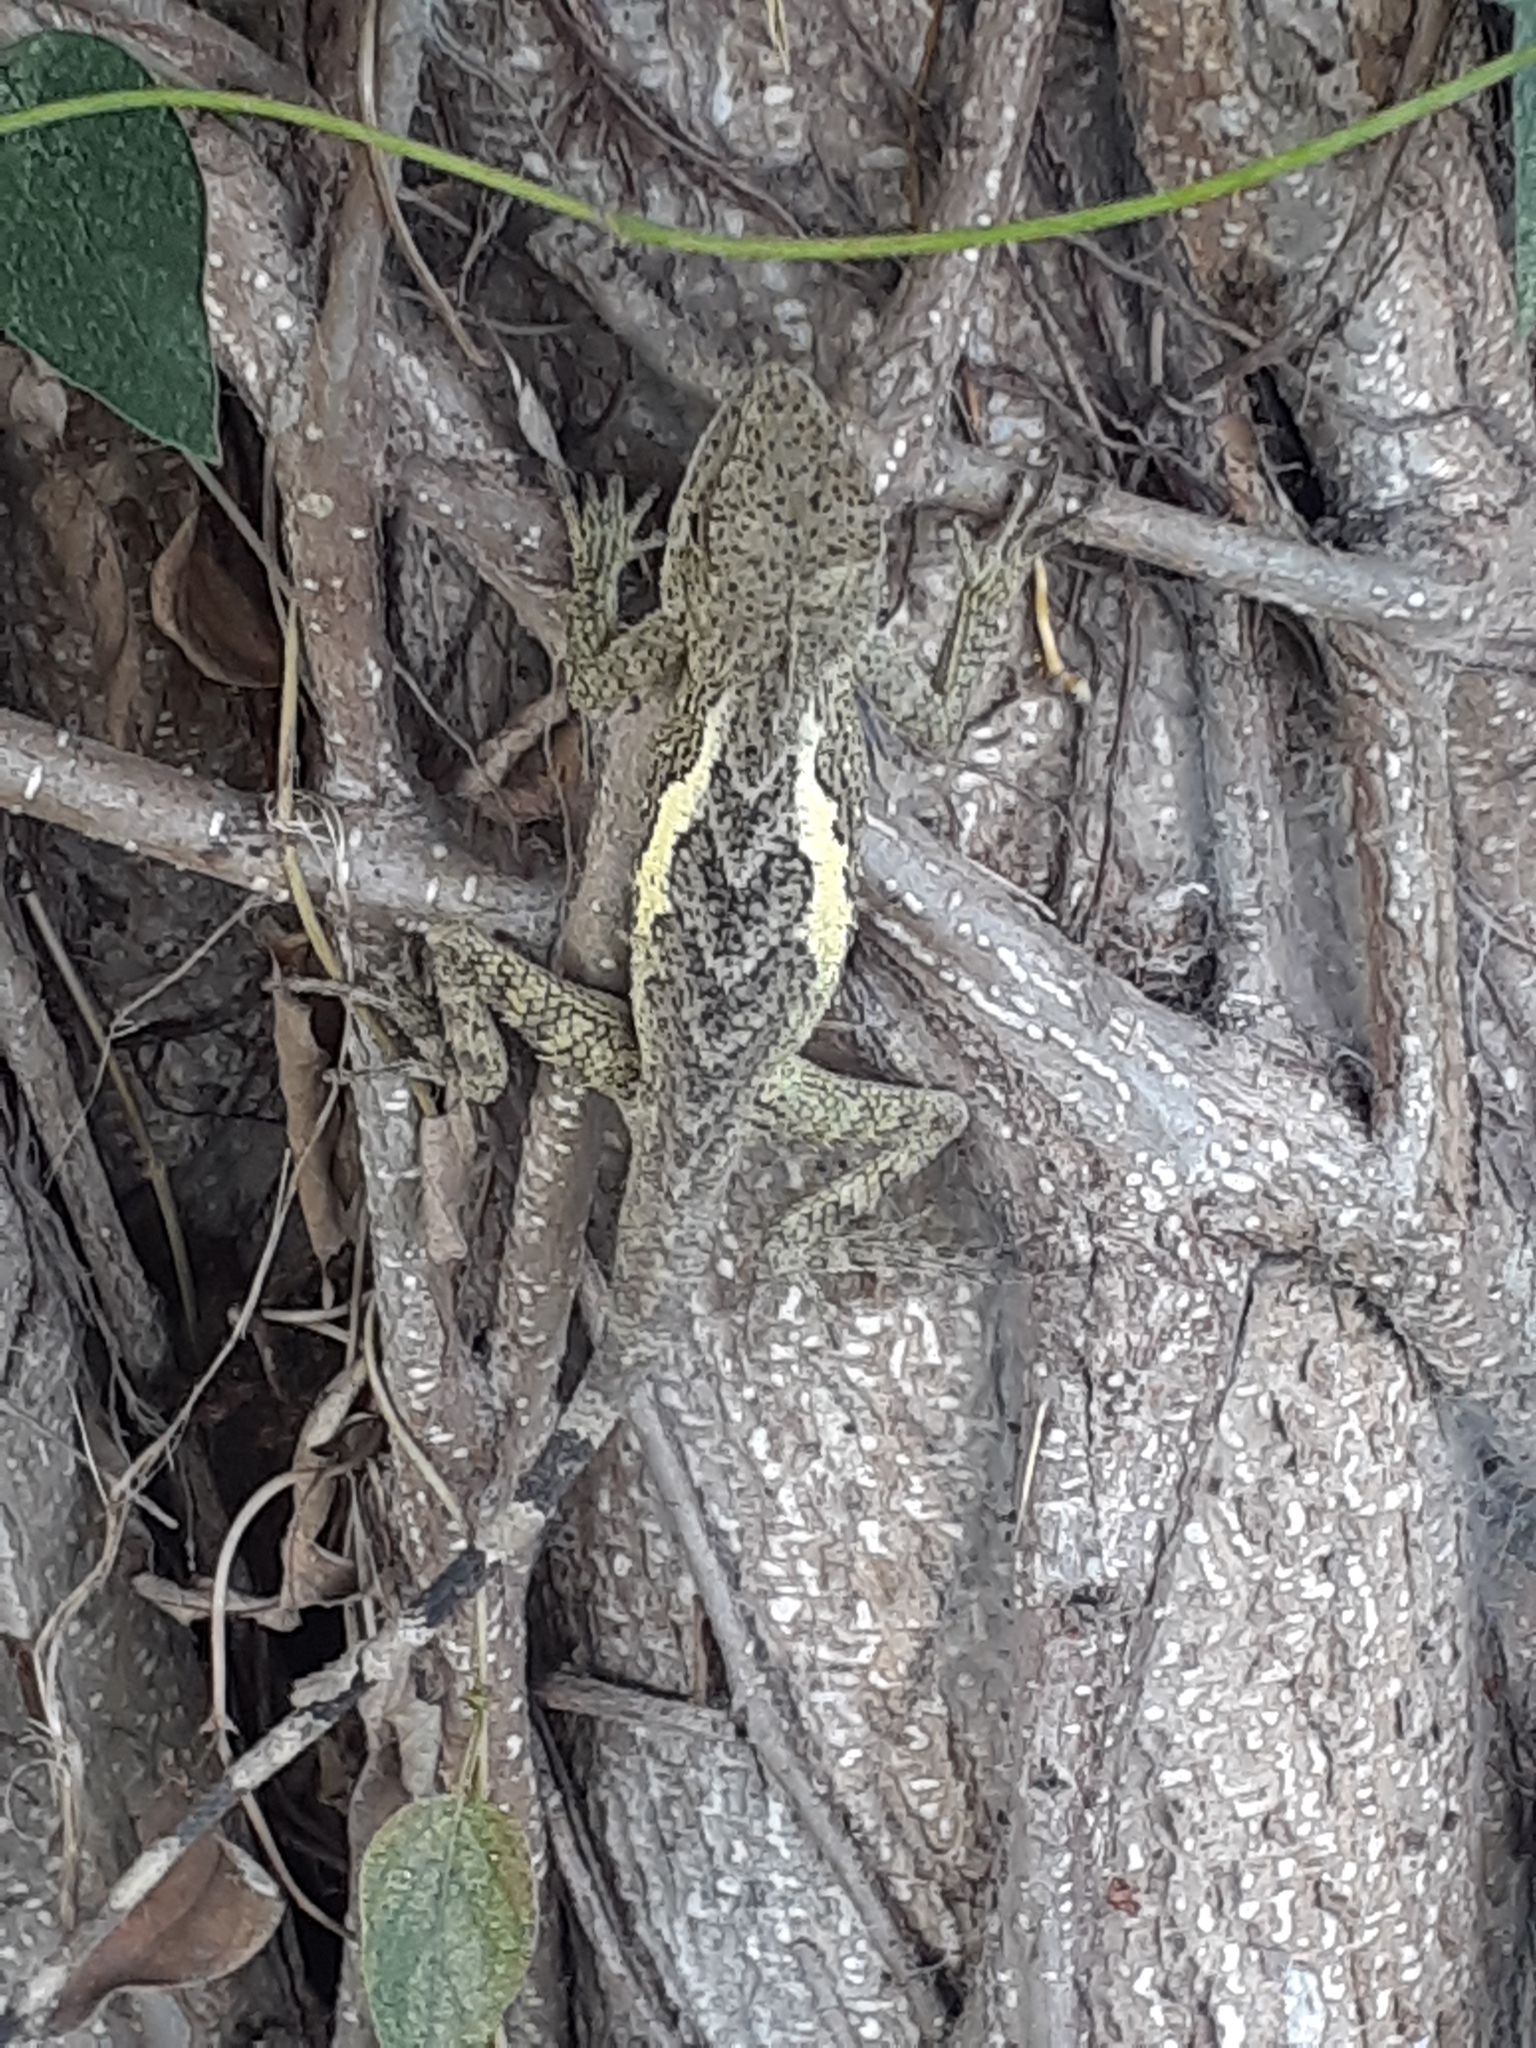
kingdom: Animalia
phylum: Chordata
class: Squamata
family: Agamidae
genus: Diploderma
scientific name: Diploderma swinhonis
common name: Taiwan japalure
